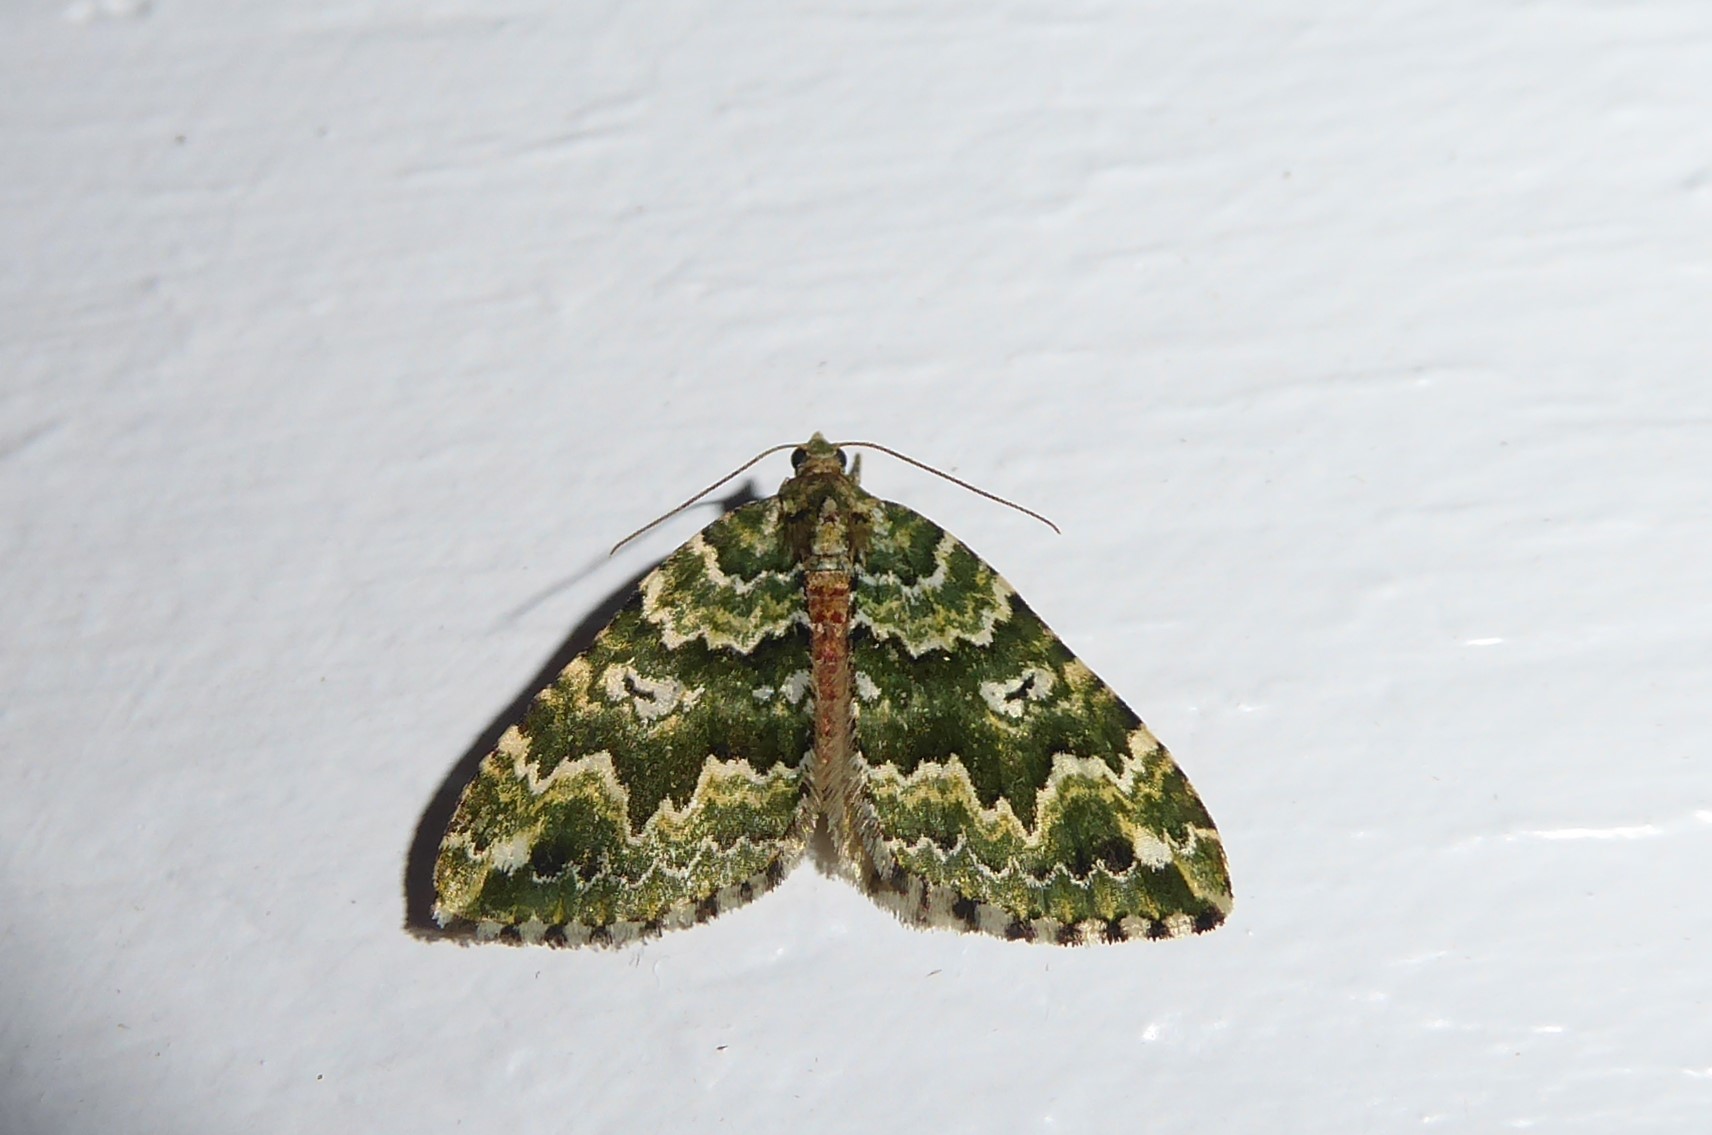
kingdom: Animalia
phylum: Arthropoda
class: Insecta
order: Lepidoptera
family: Geometridae
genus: Asaphodes
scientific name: Asaphodes beata
